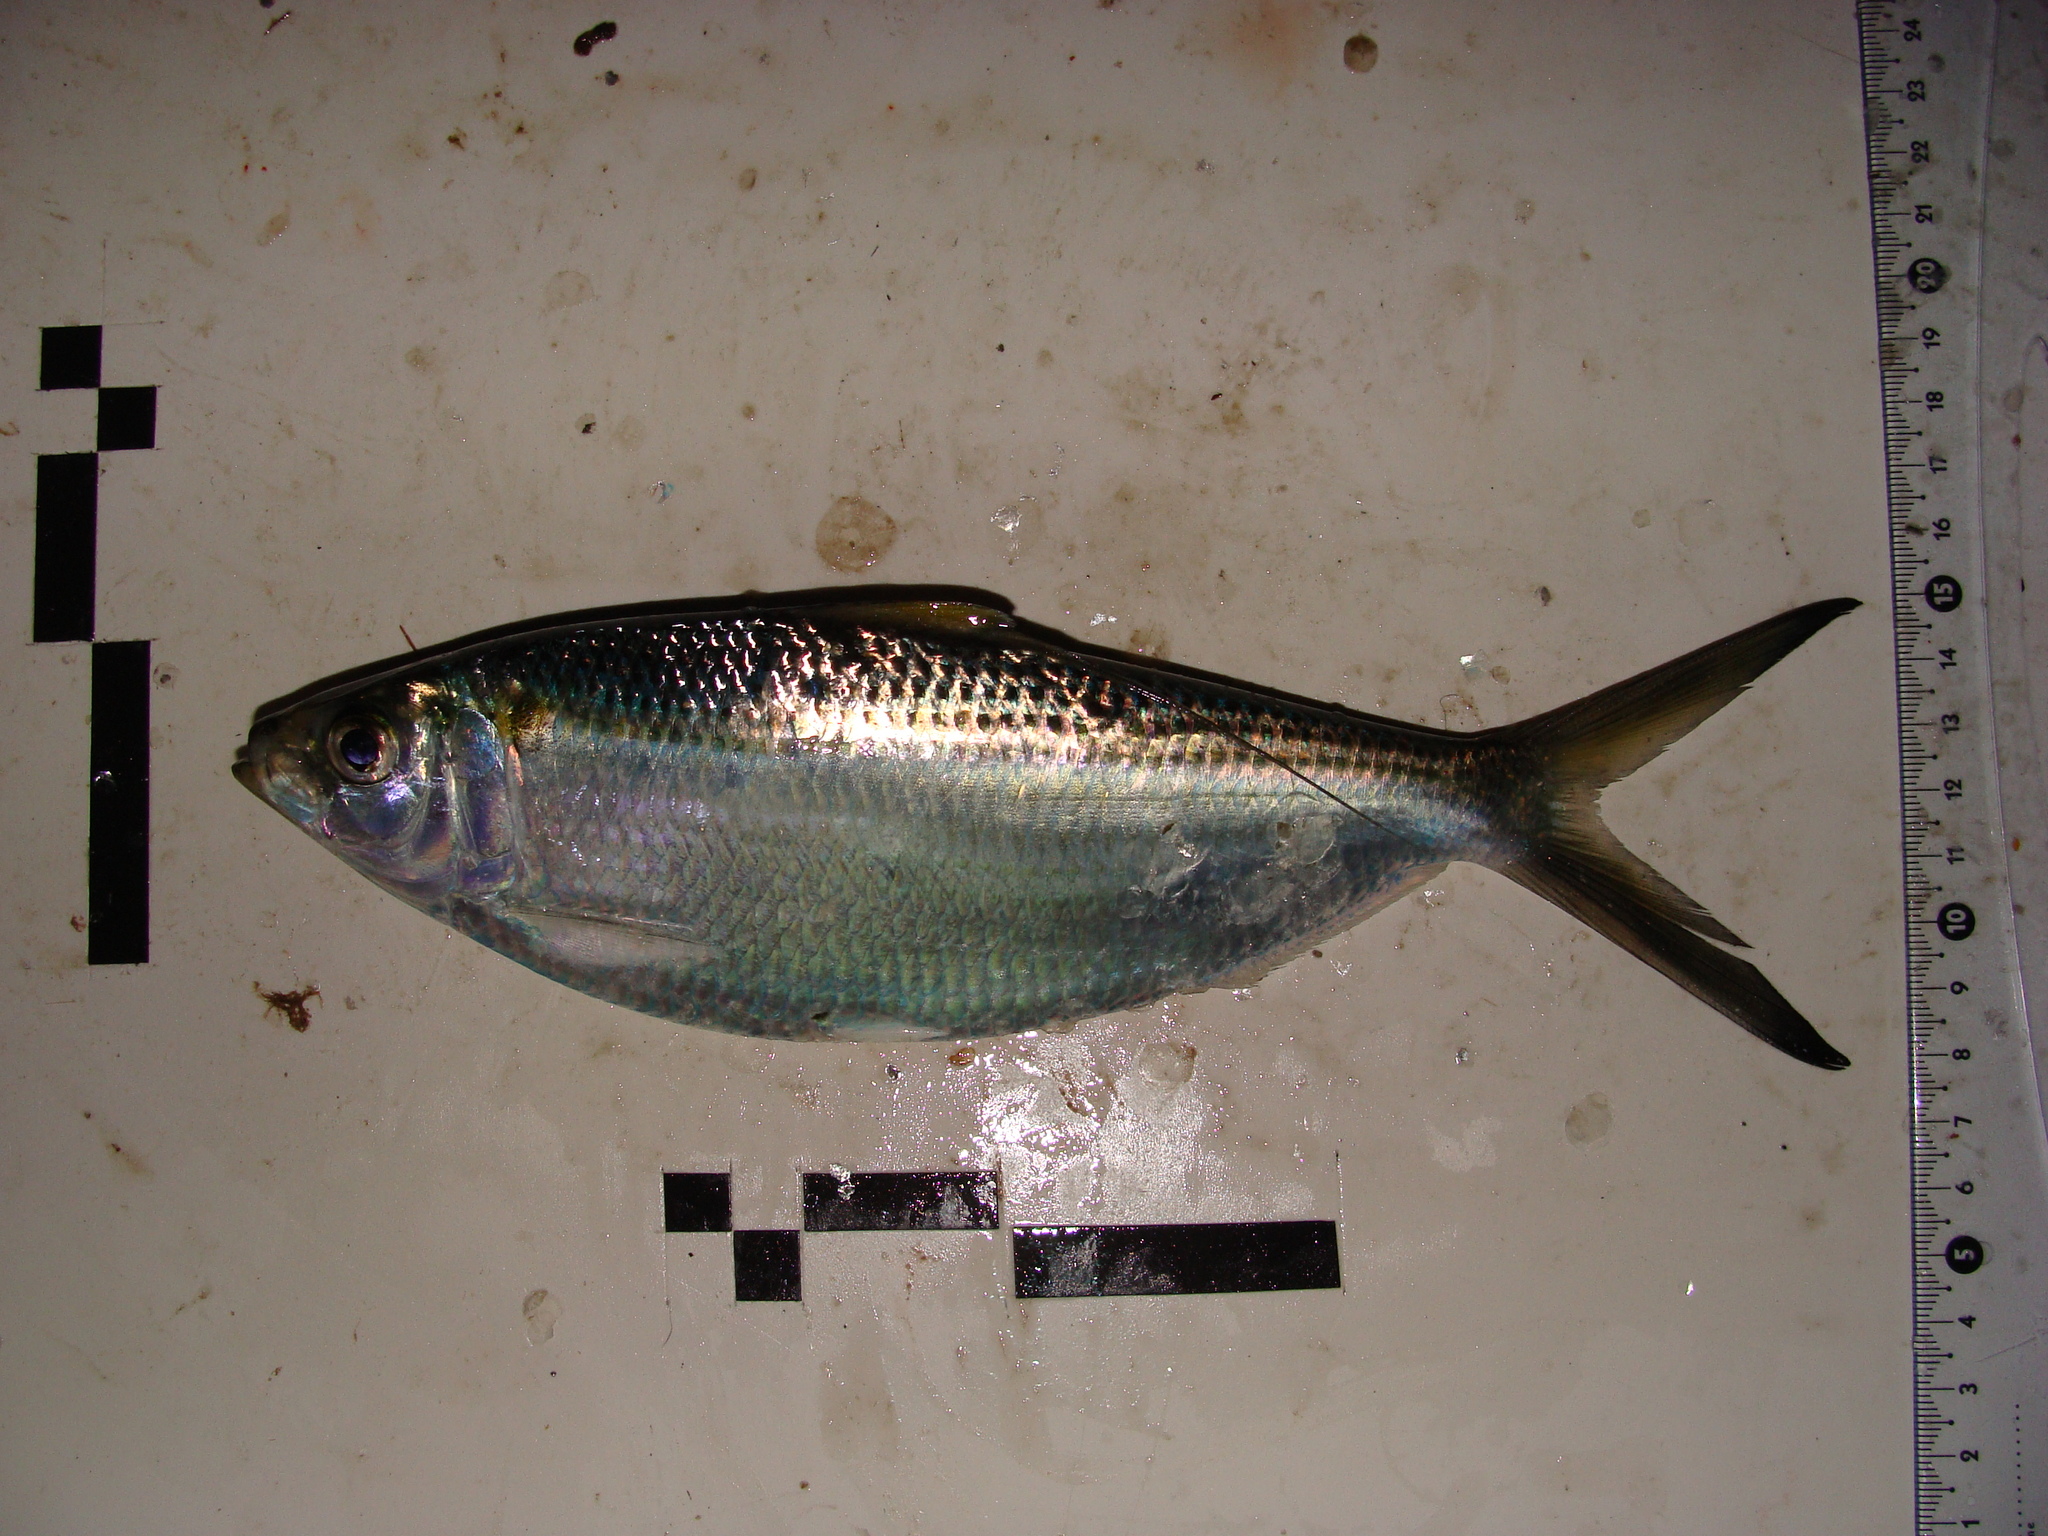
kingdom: Animalia
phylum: Chordata
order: Clupeiformes
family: Clupeidae
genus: Opisthonema
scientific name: Opisthonema oglinum
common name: Thread herring
